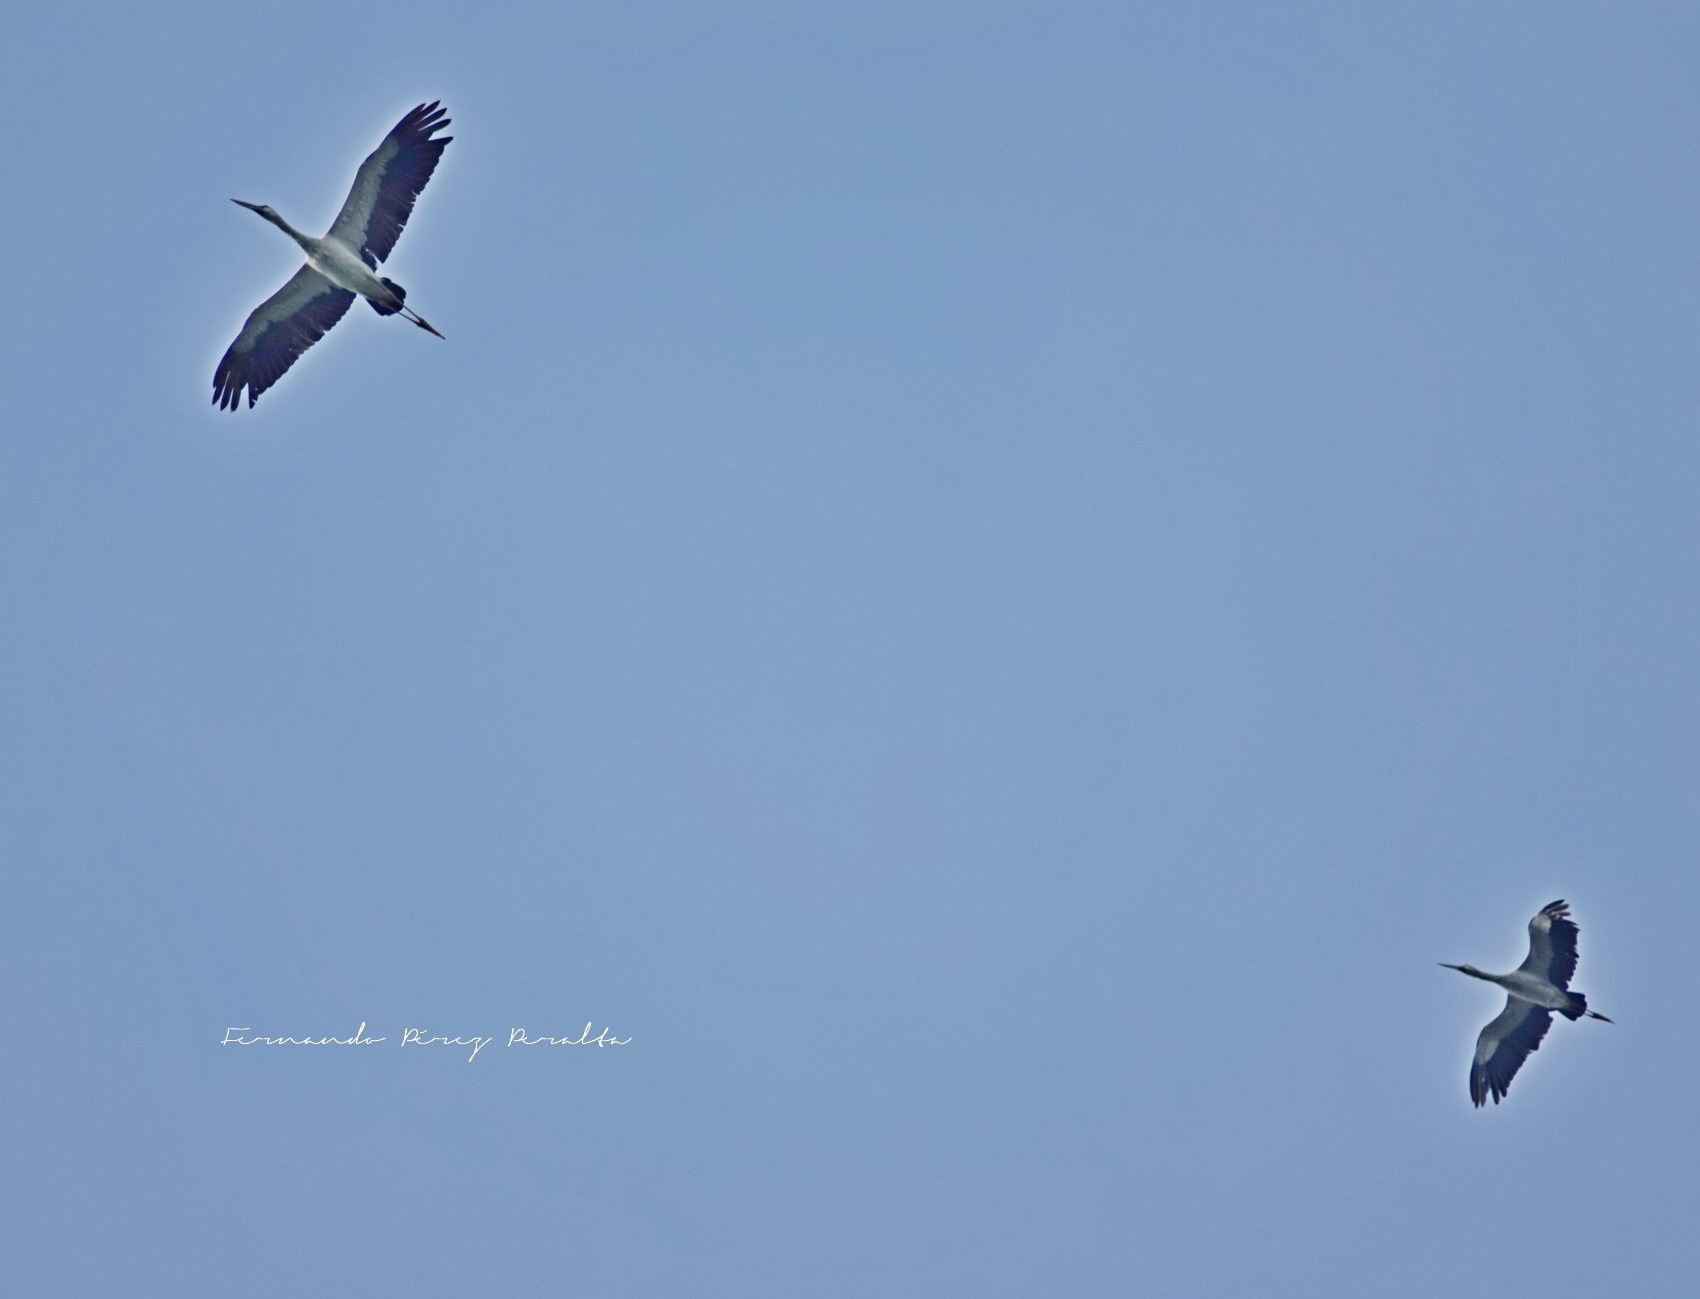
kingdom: Animalia
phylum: Chordata
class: Aves
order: Ciconiiformes
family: Ciconiidae
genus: Anastomus
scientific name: Anastomus oscitans
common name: Asian openbill
